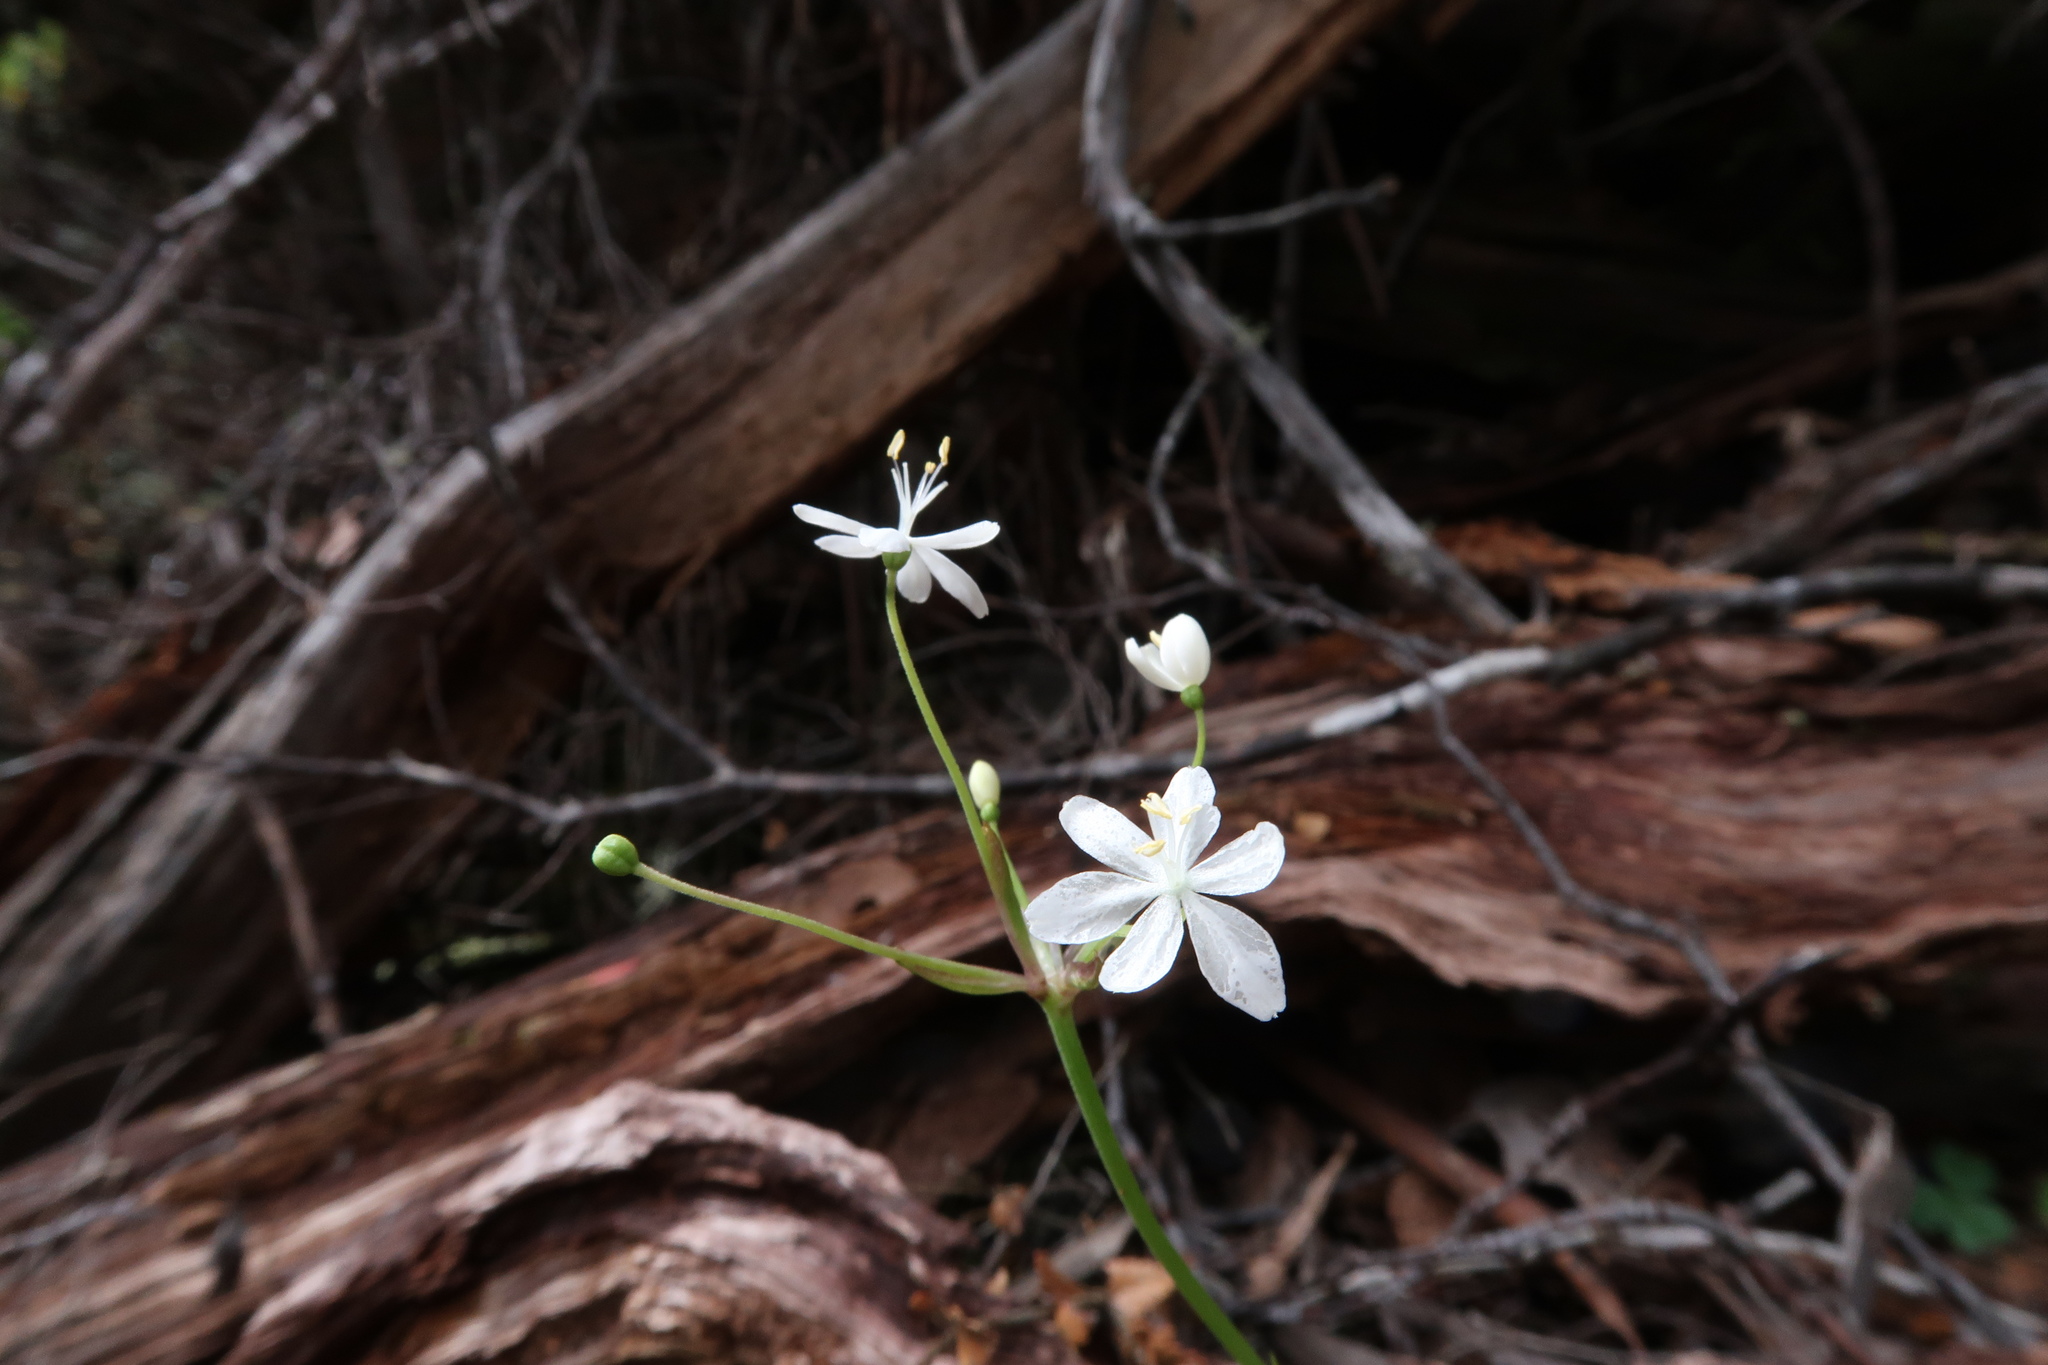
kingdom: Plantae
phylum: Tracheophyta
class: Liliopsida
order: Asparagales
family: Iridaceae
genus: Libertia
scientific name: Libertia pulchella
